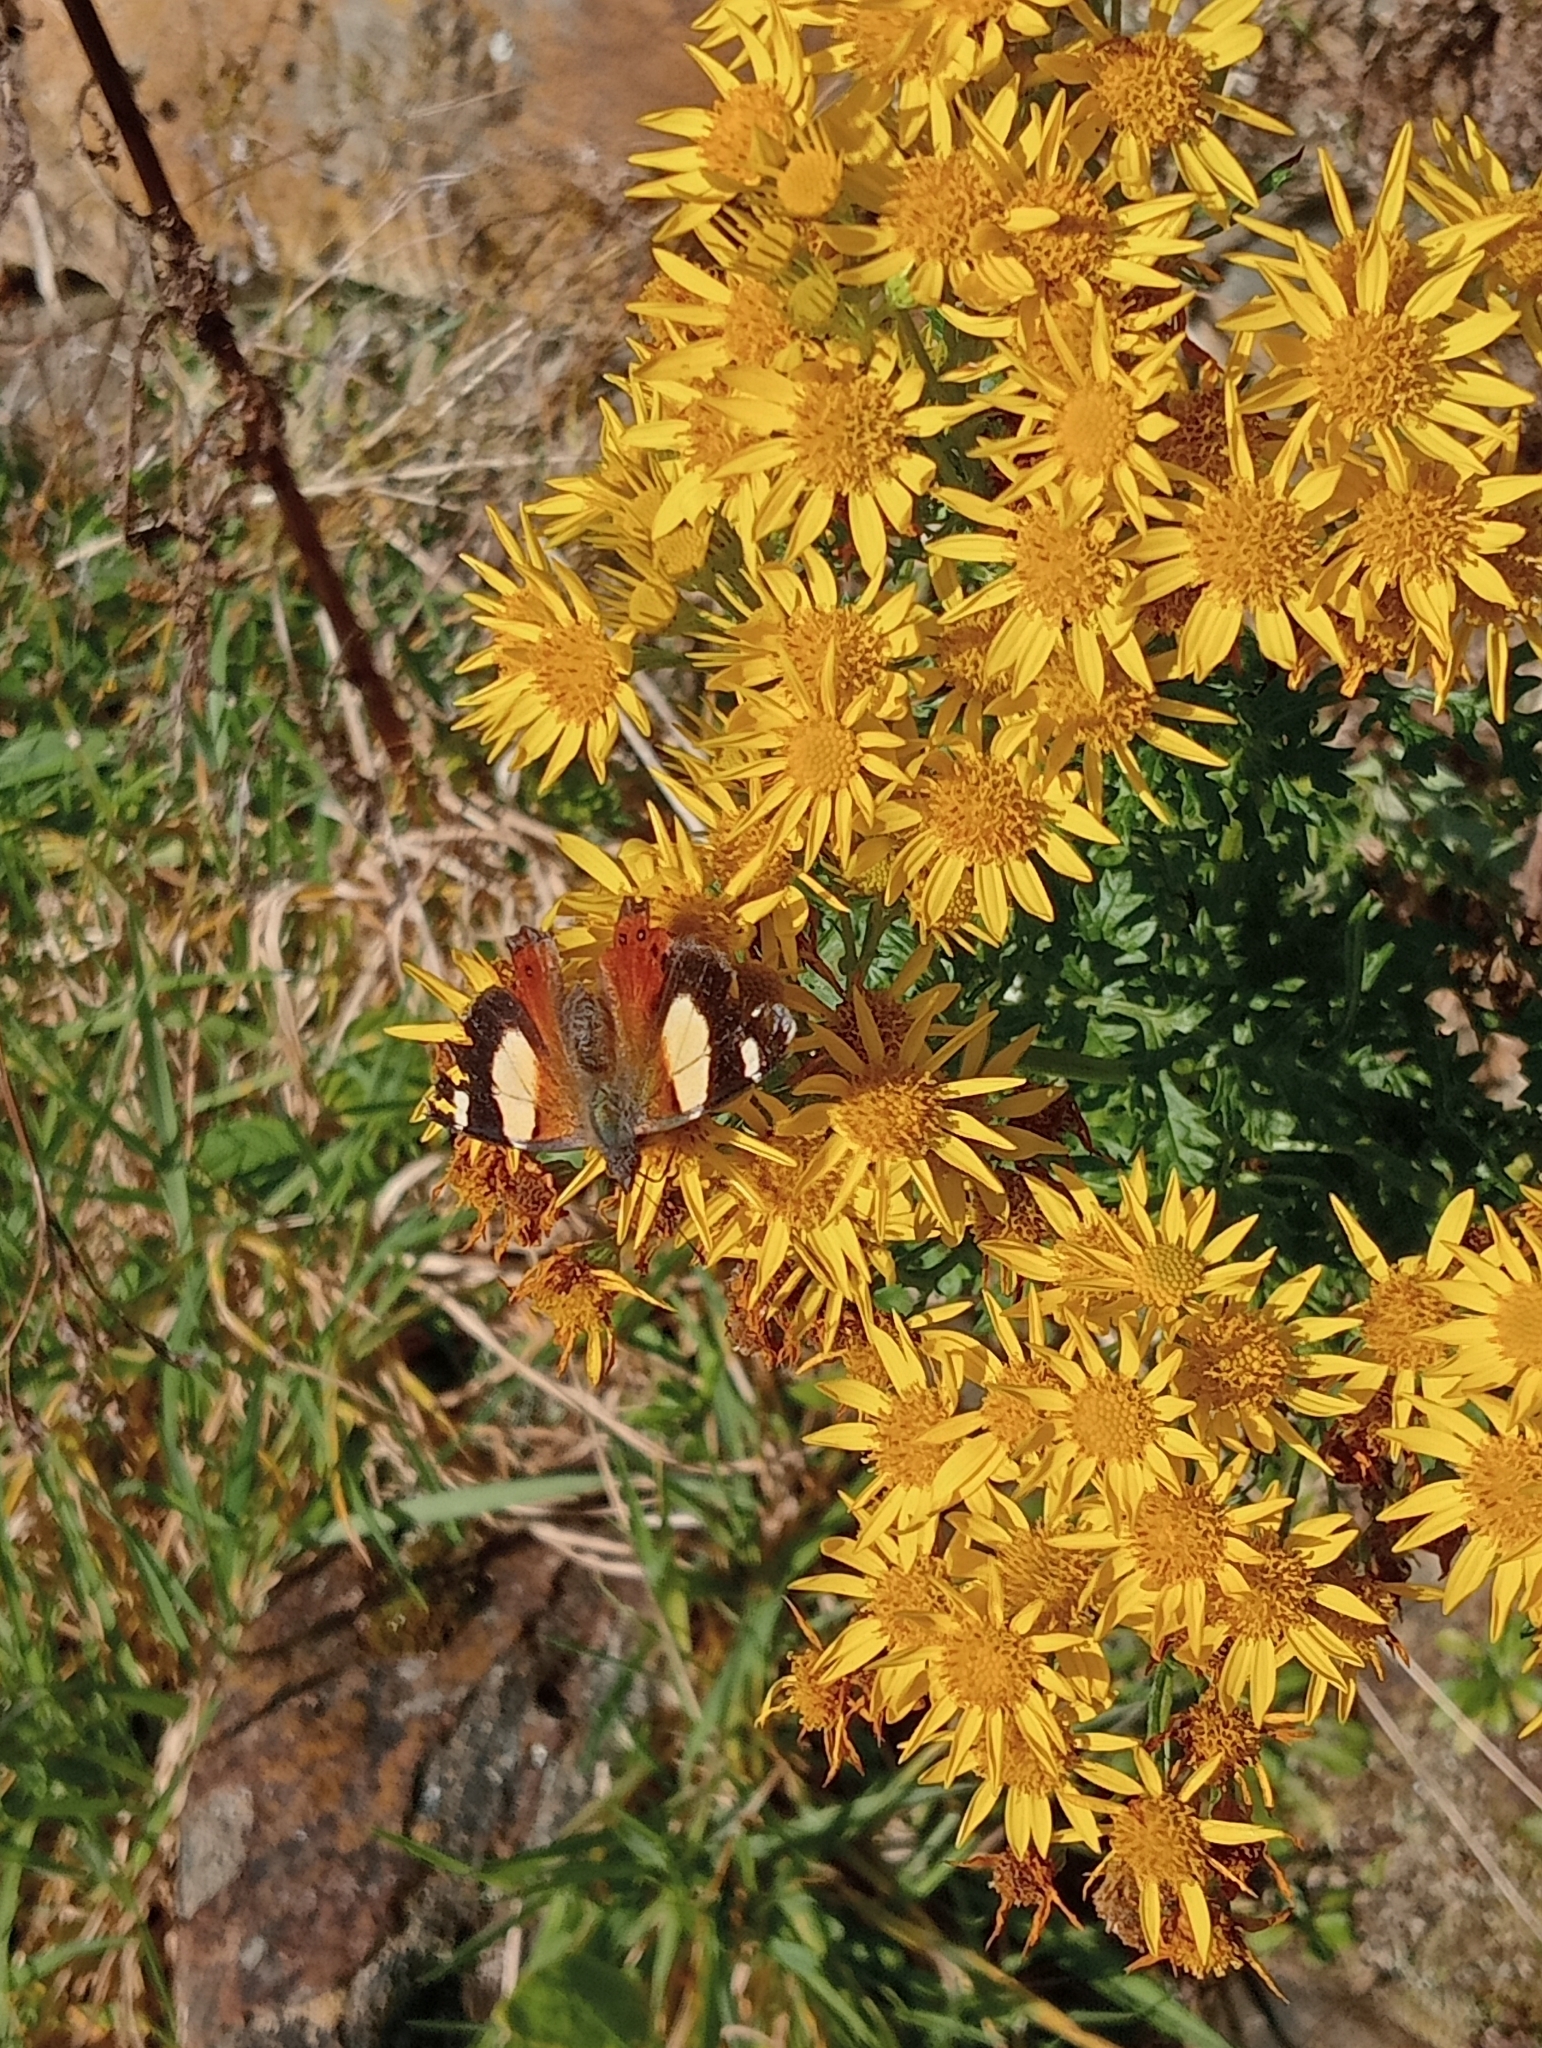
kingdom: Animalia
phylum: Arthropoda
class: Insecta
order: Lepidoptera
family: Nymphalidae
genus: Vanessa
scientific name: Vanessa itea
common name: Yellow admiral
